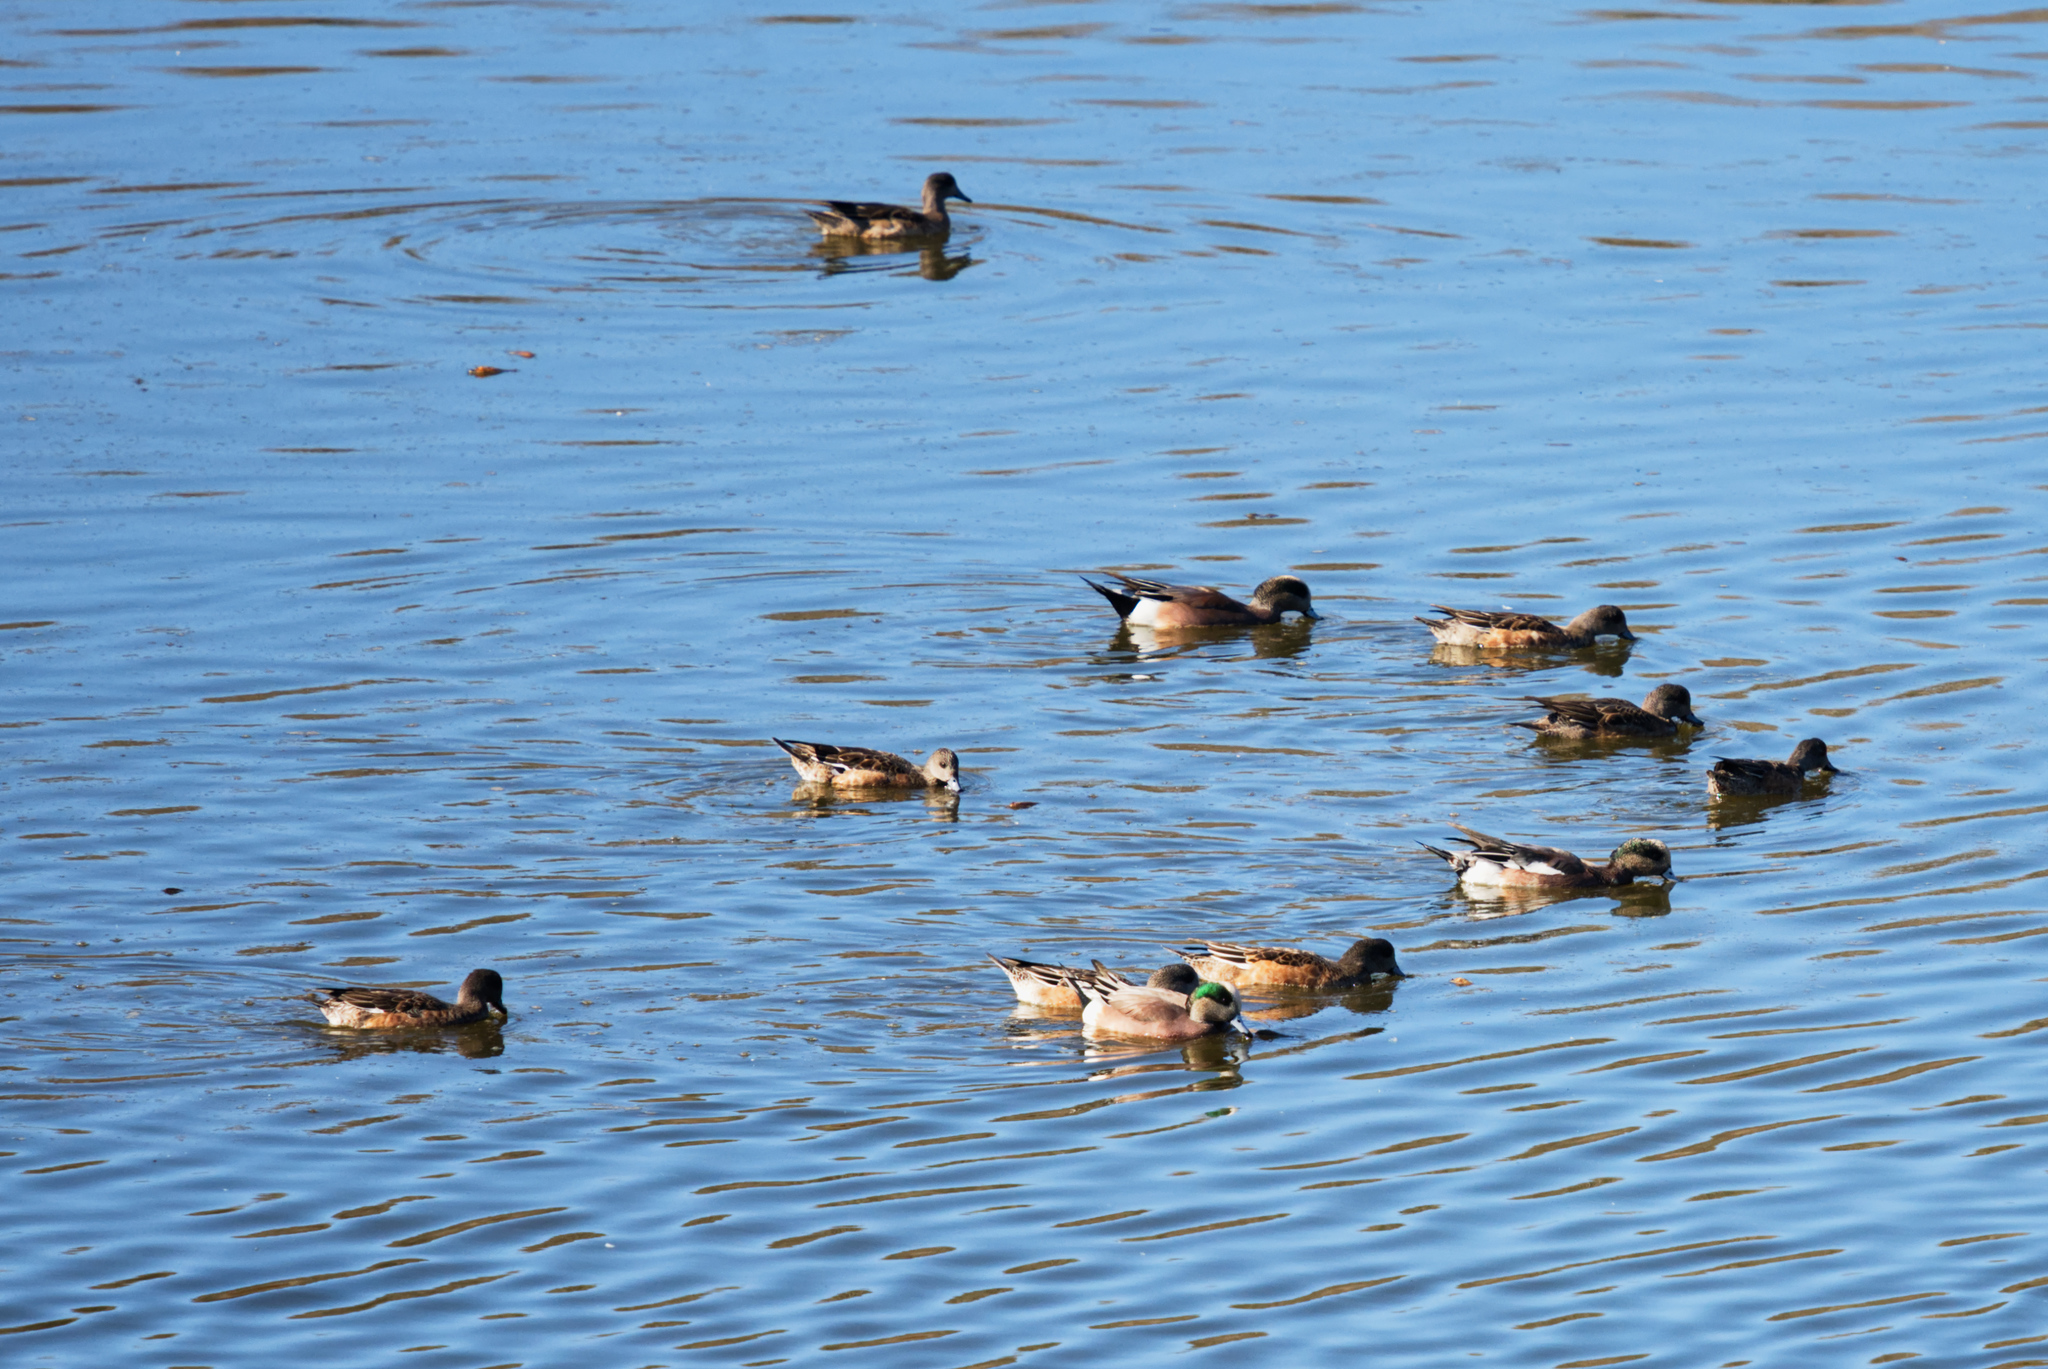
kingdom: Animalia
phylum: Chordata
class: Aves
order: Anseriformes
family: Anatidae
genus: Mareca
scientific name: Mareca americana
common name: American wigeon
